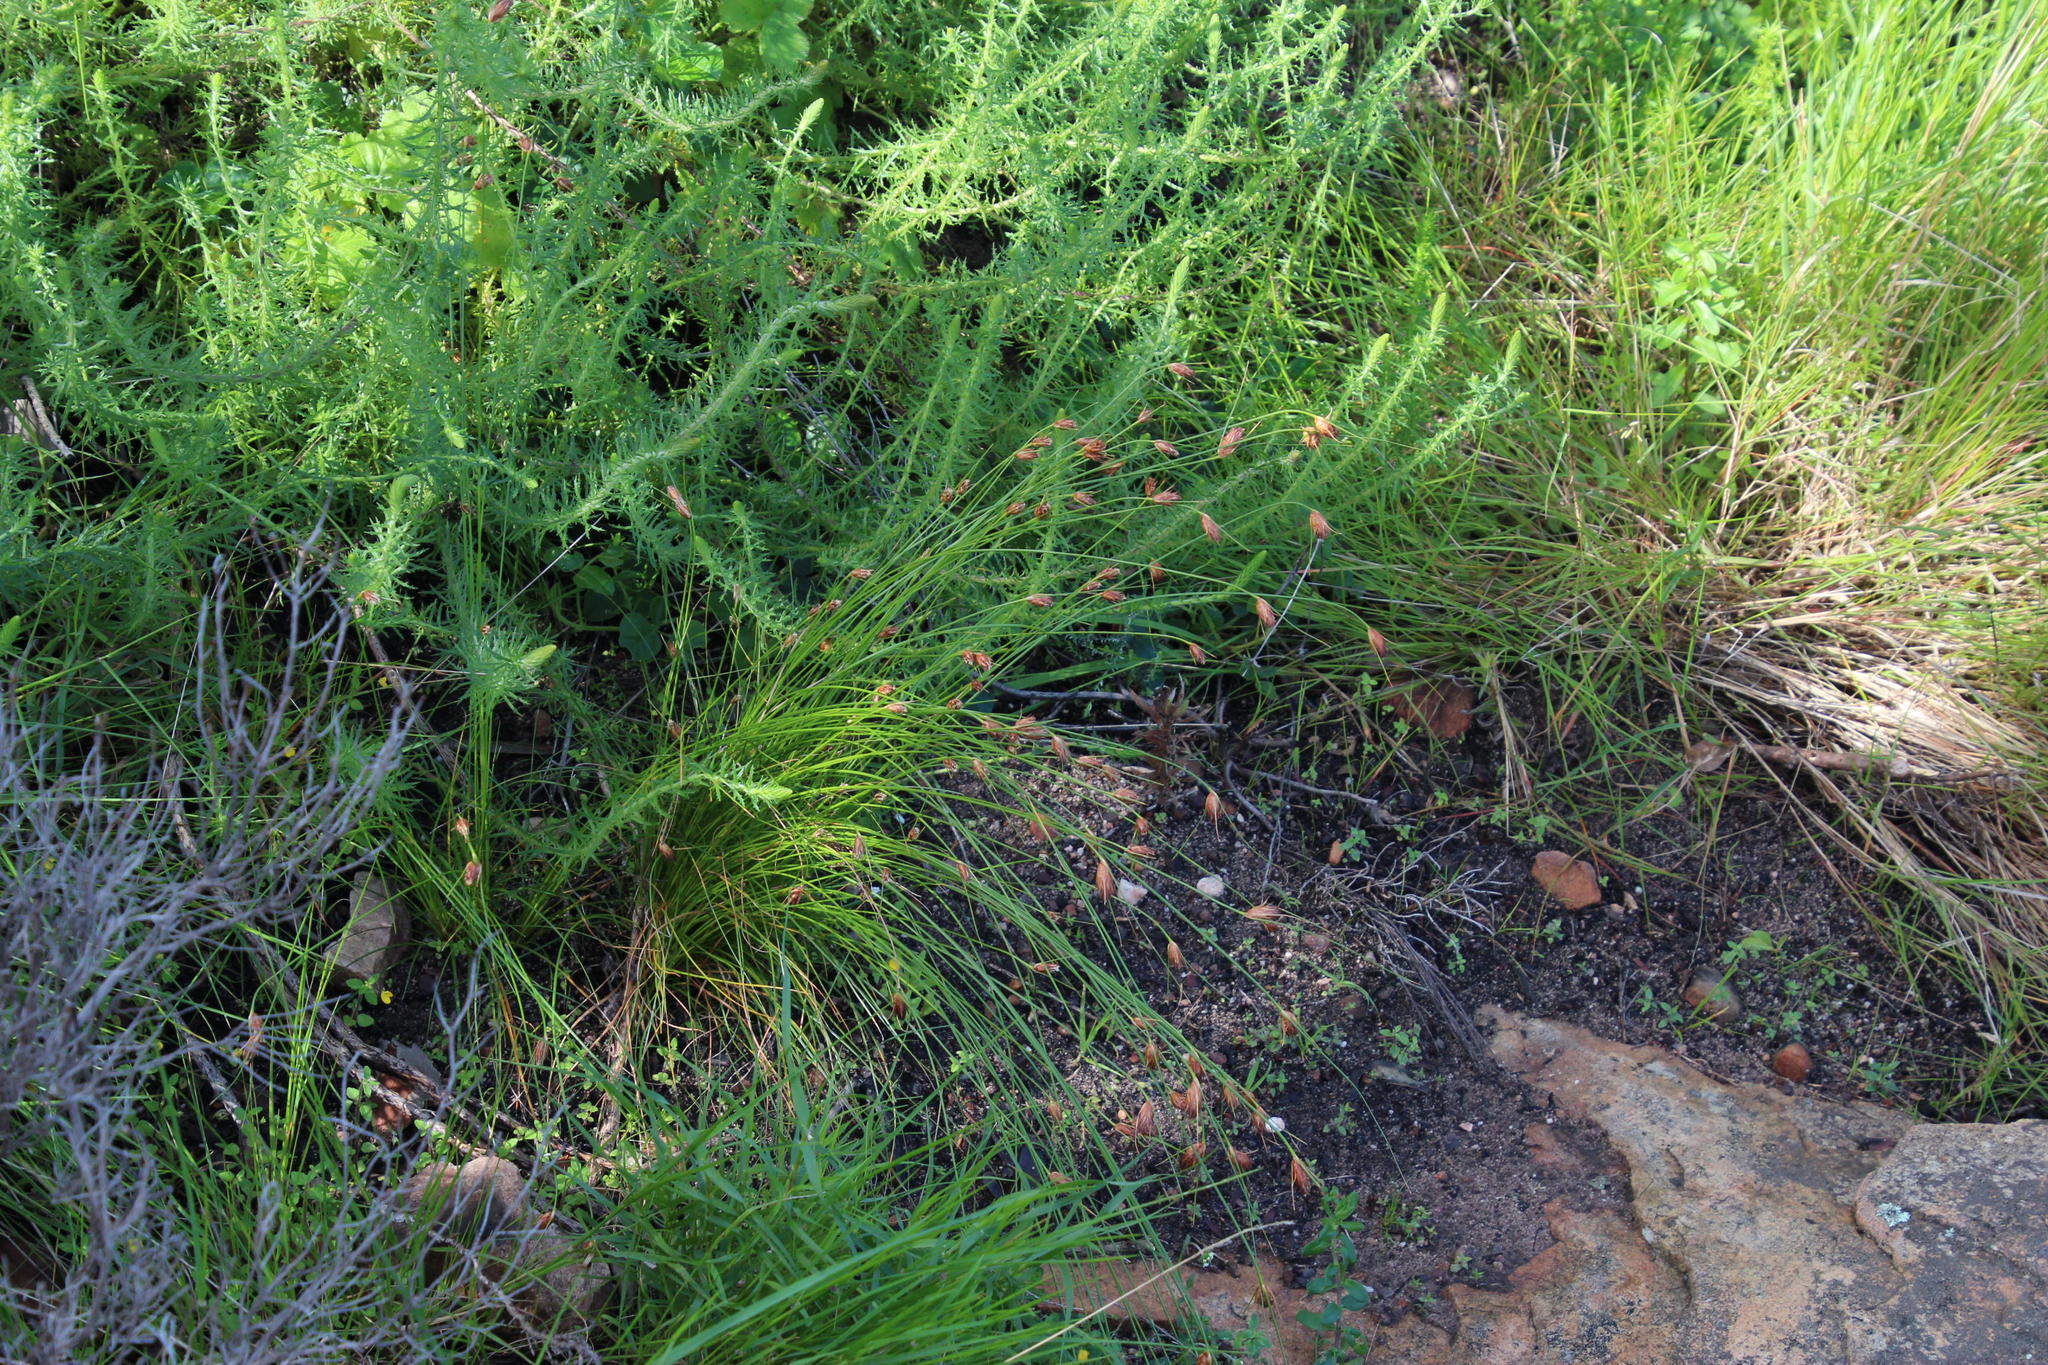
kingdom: Plantae
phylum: Tracheophyta
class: Liliopsida
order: Poales
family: Cyperaceae
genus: Ficinia
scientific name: Ficinia nigrescens
